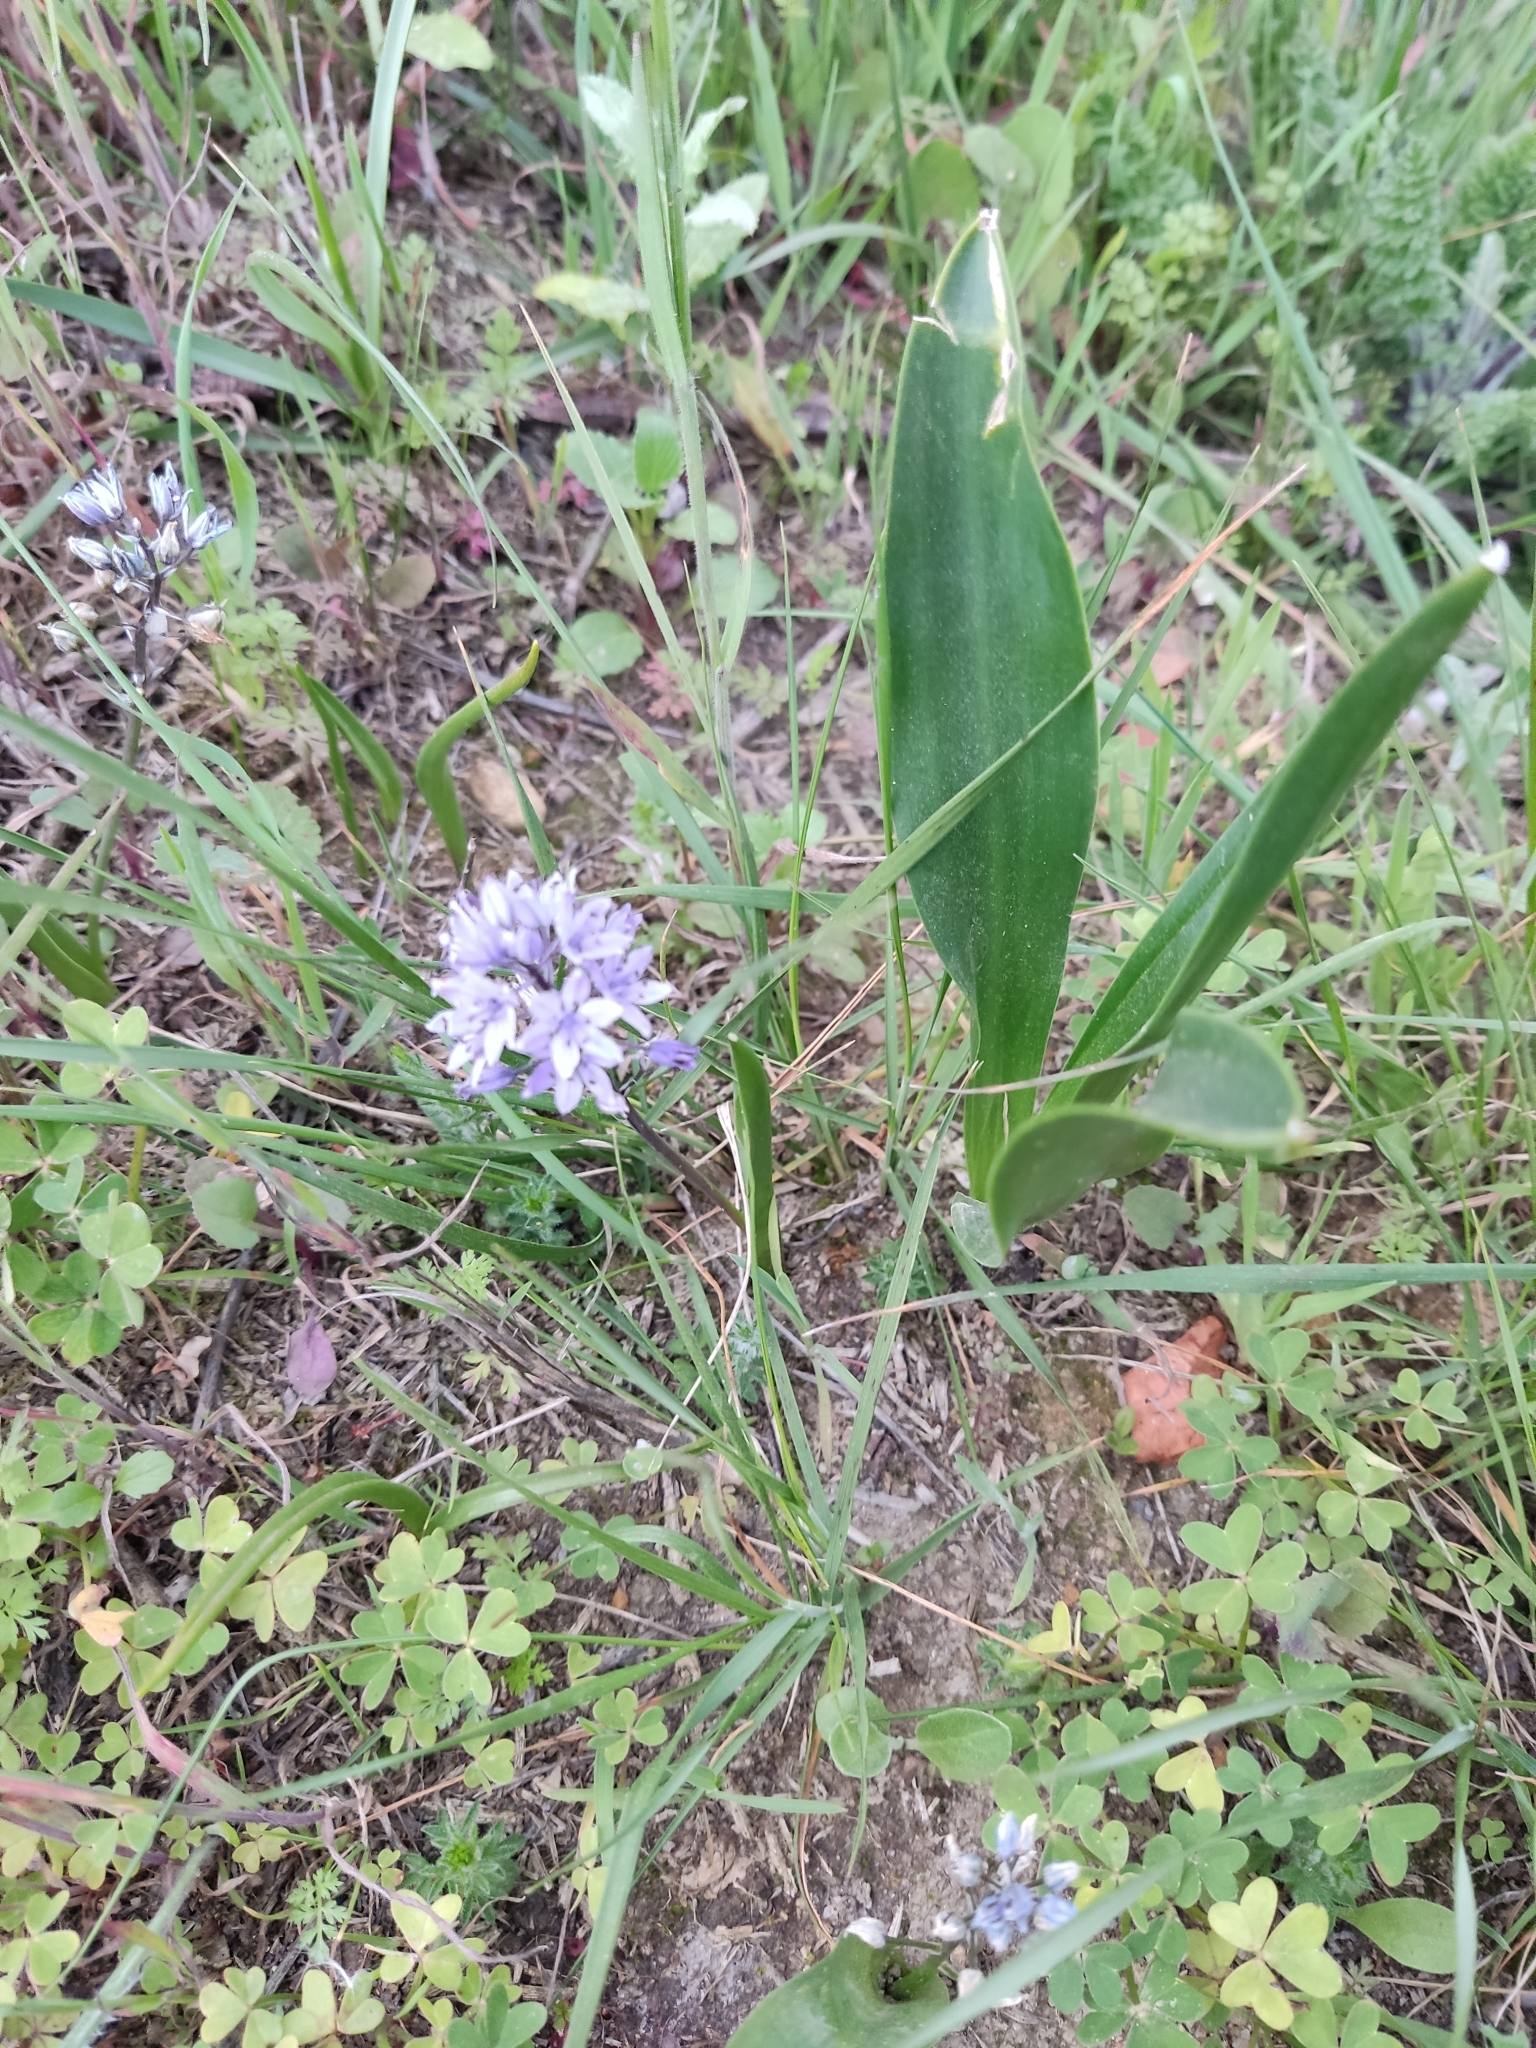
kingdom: Plantae
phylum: Tracheophyta
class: Liliopsida
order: Asparagales
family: Asparagaceae
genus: Scilla
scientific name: Scilla monophyllos
